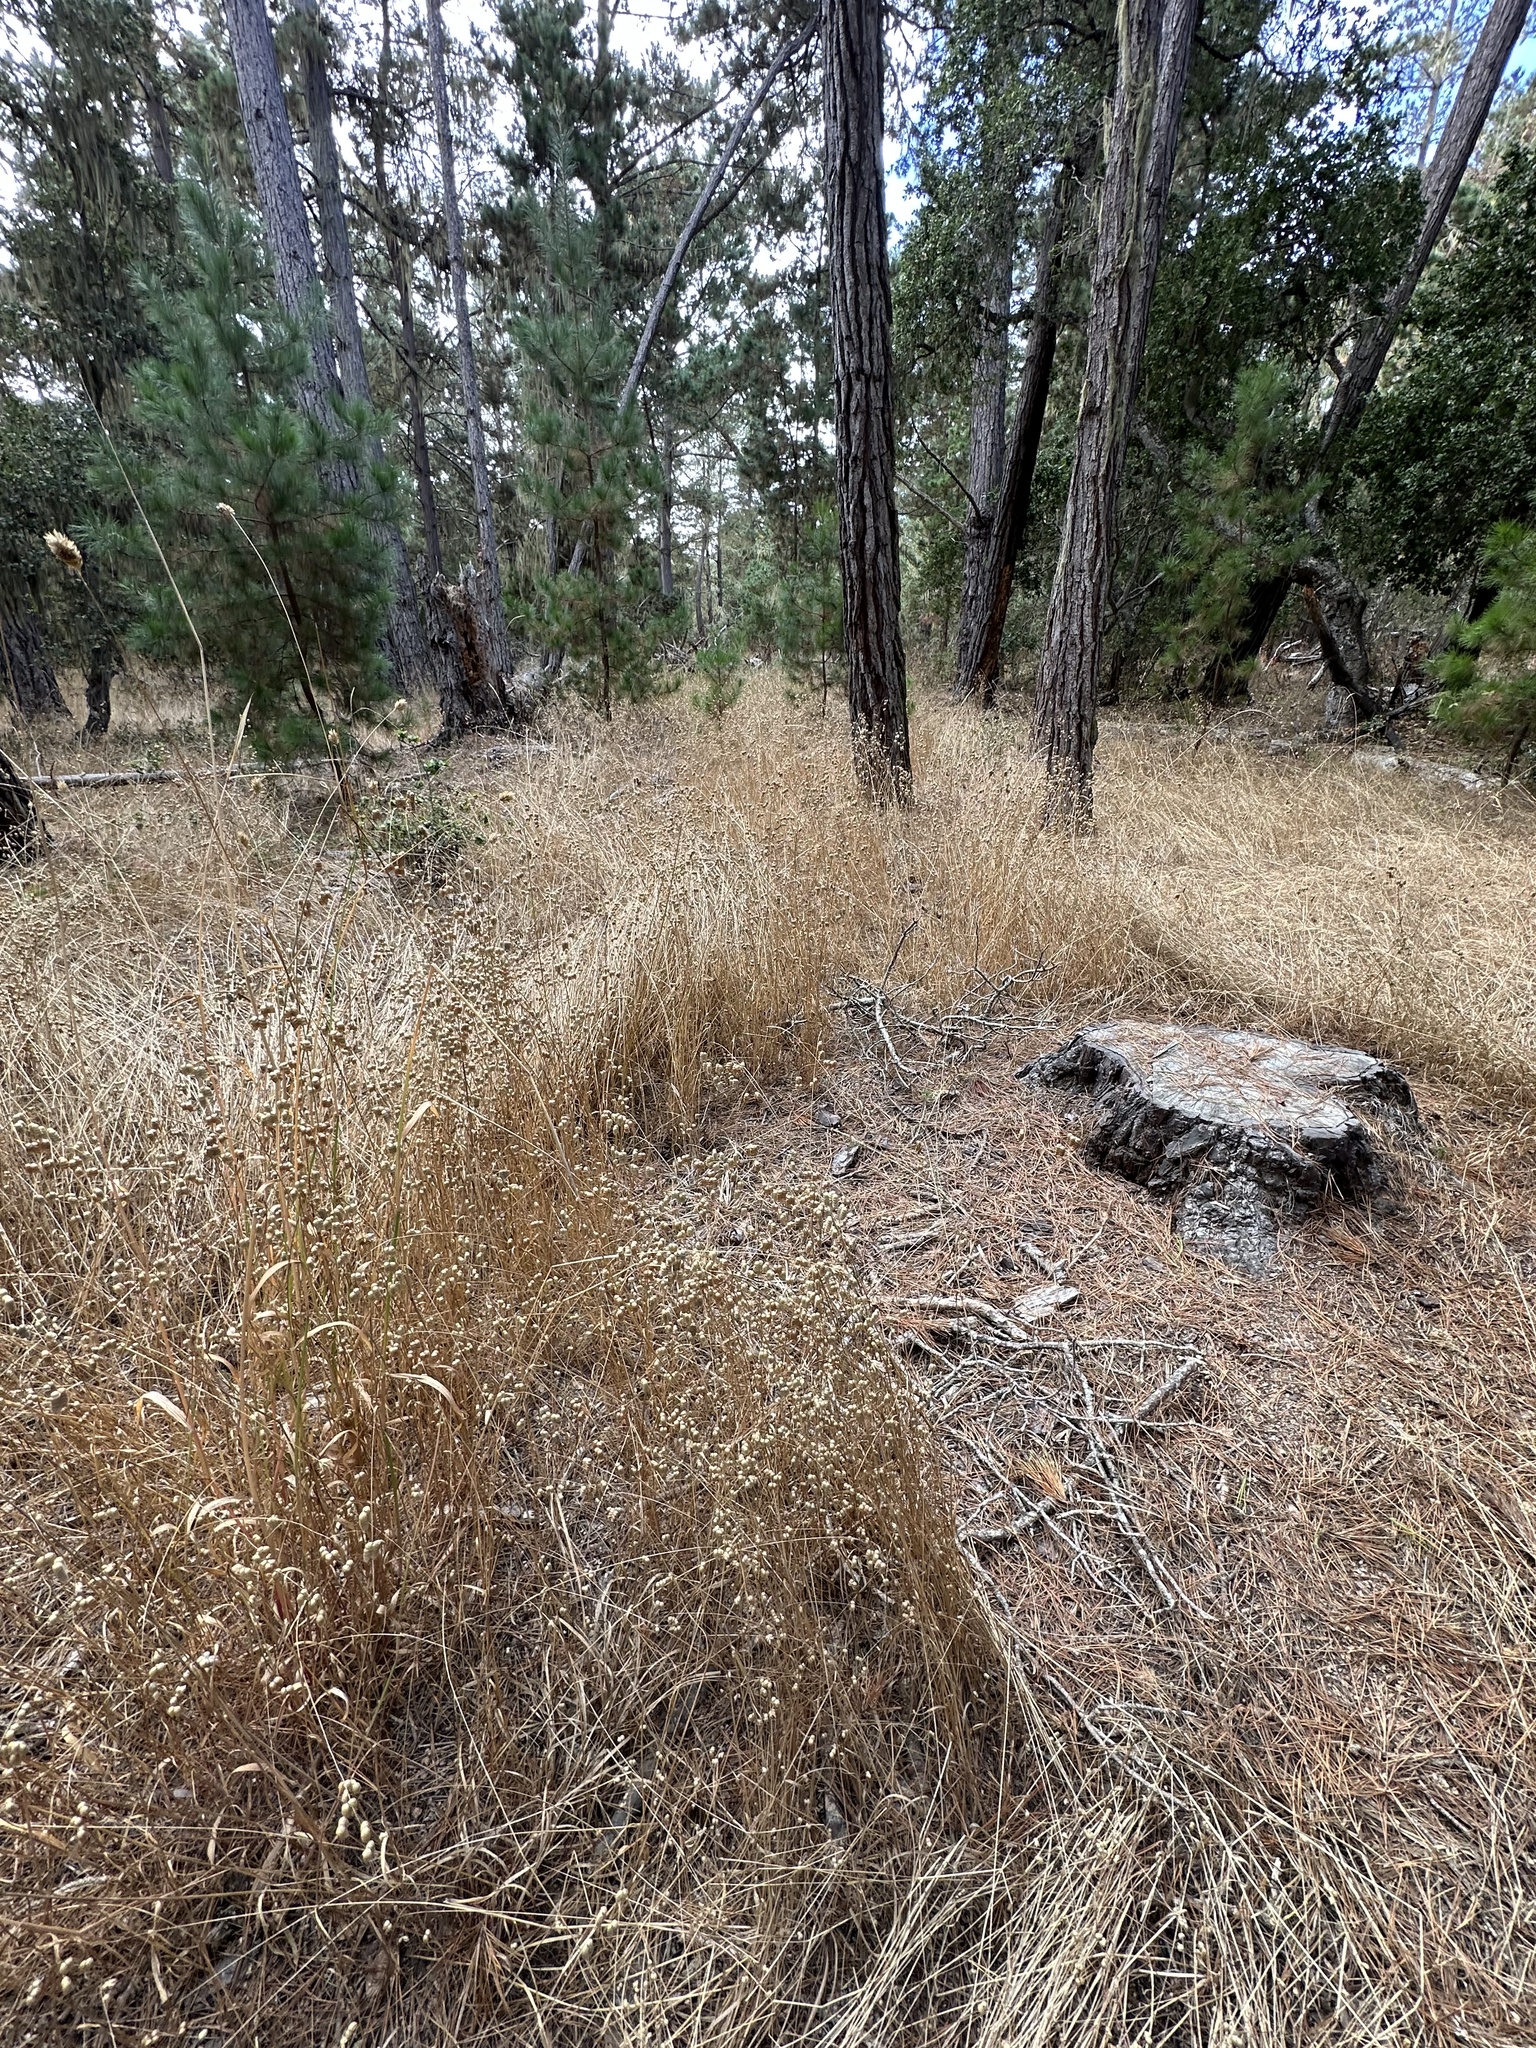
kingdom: Plantae
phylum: Tracheophyta
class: Liliopsida
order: Poales
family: Poaceae
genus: Briza
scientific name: Briza maxima
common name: Big quakinggrass
